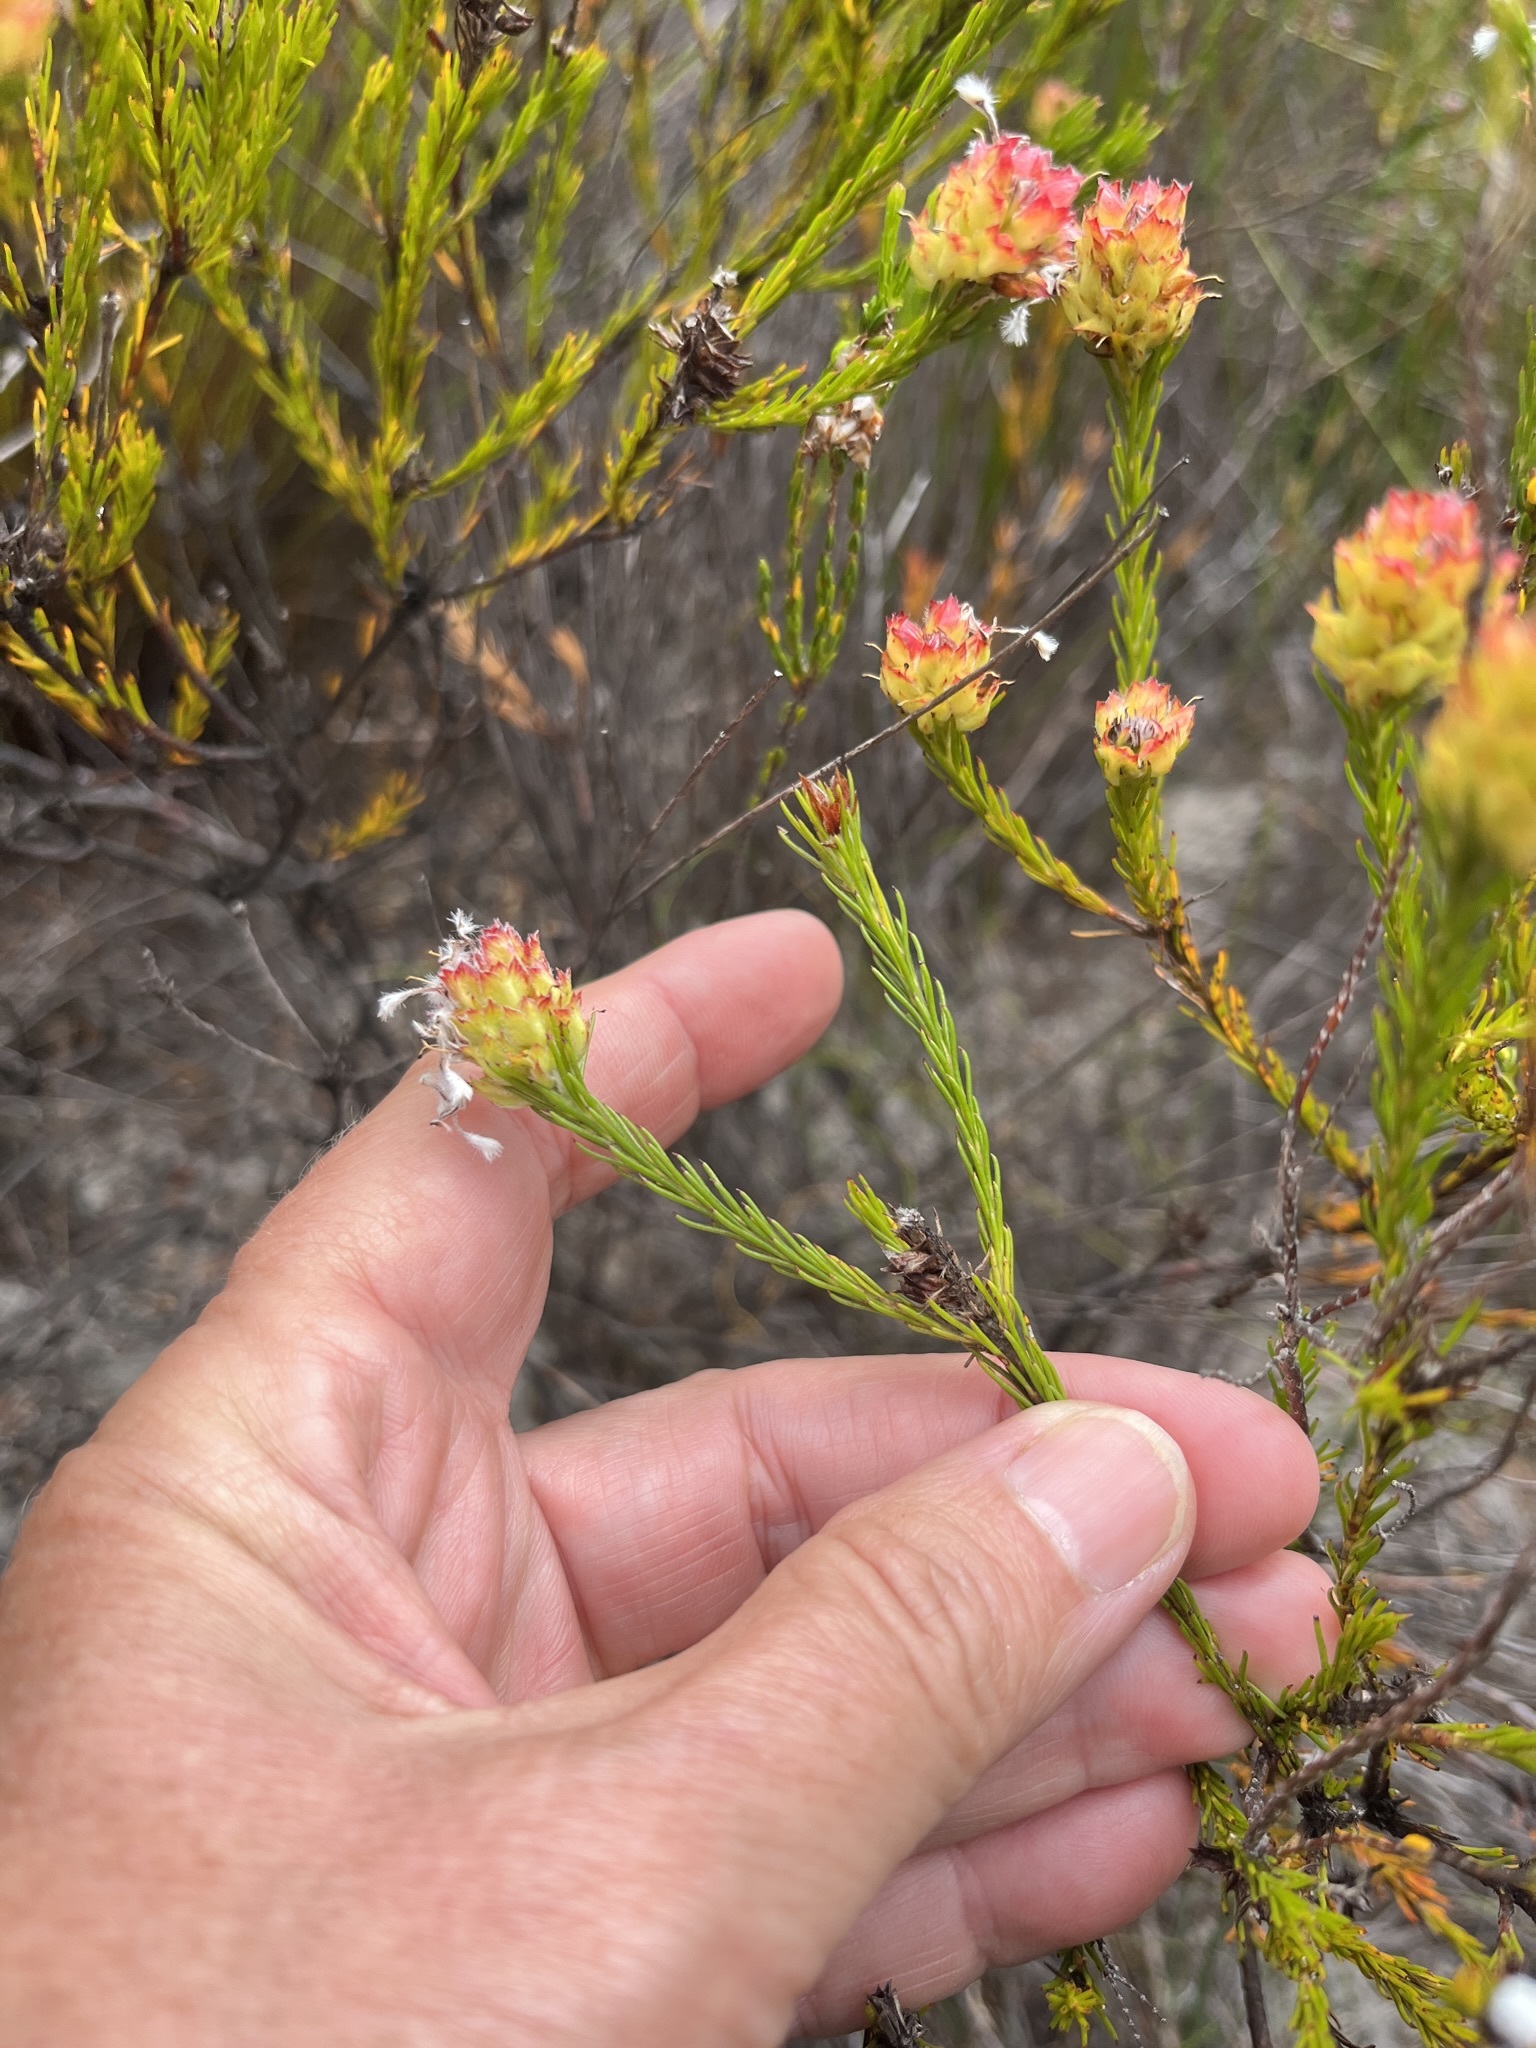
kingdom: Plantae
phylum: Tracheophyta
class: Magnoliopsida
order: Proteales
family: Proteaceae
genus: Spatalla
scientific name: Spatalla squamata
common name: Silky spoon
